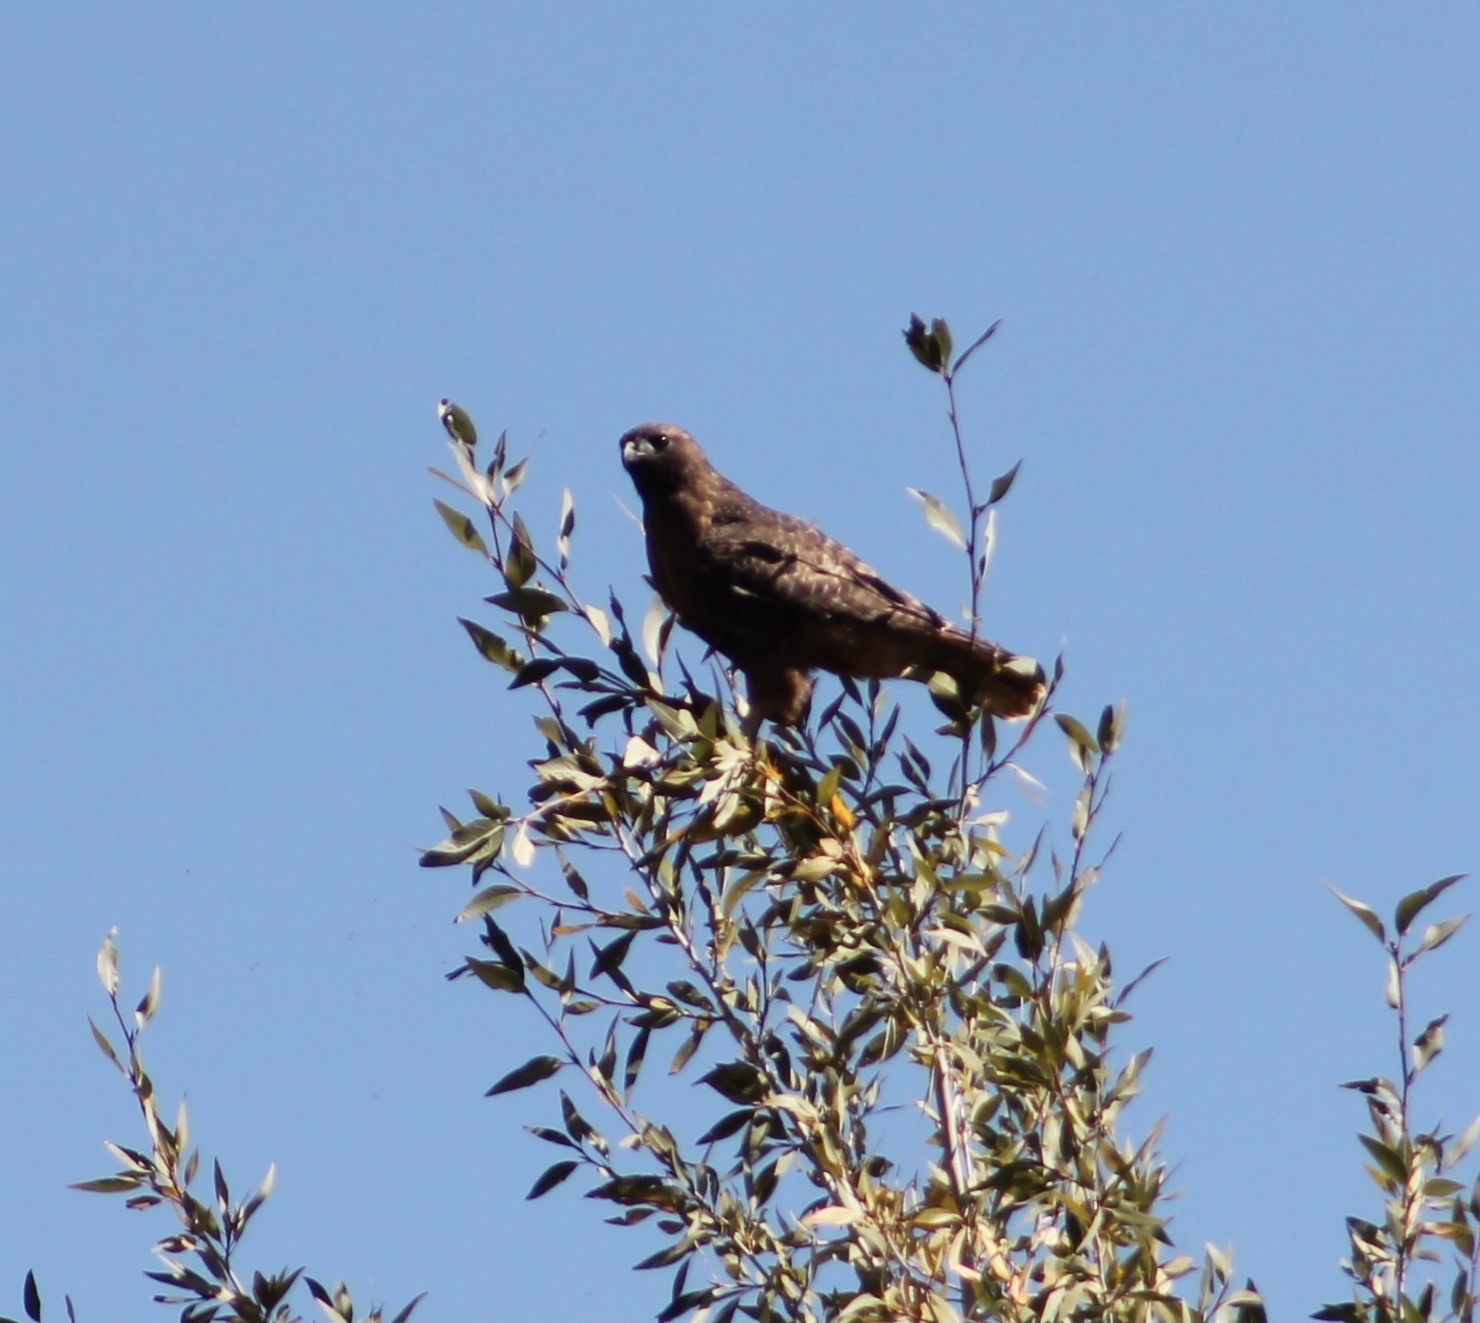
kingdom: Animalia
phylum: Chordata
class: Aves
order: Accipitriformes
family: Accipitridae
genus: Buteo
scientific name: Buteo jamaicensis
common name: Red-tailed hawk
